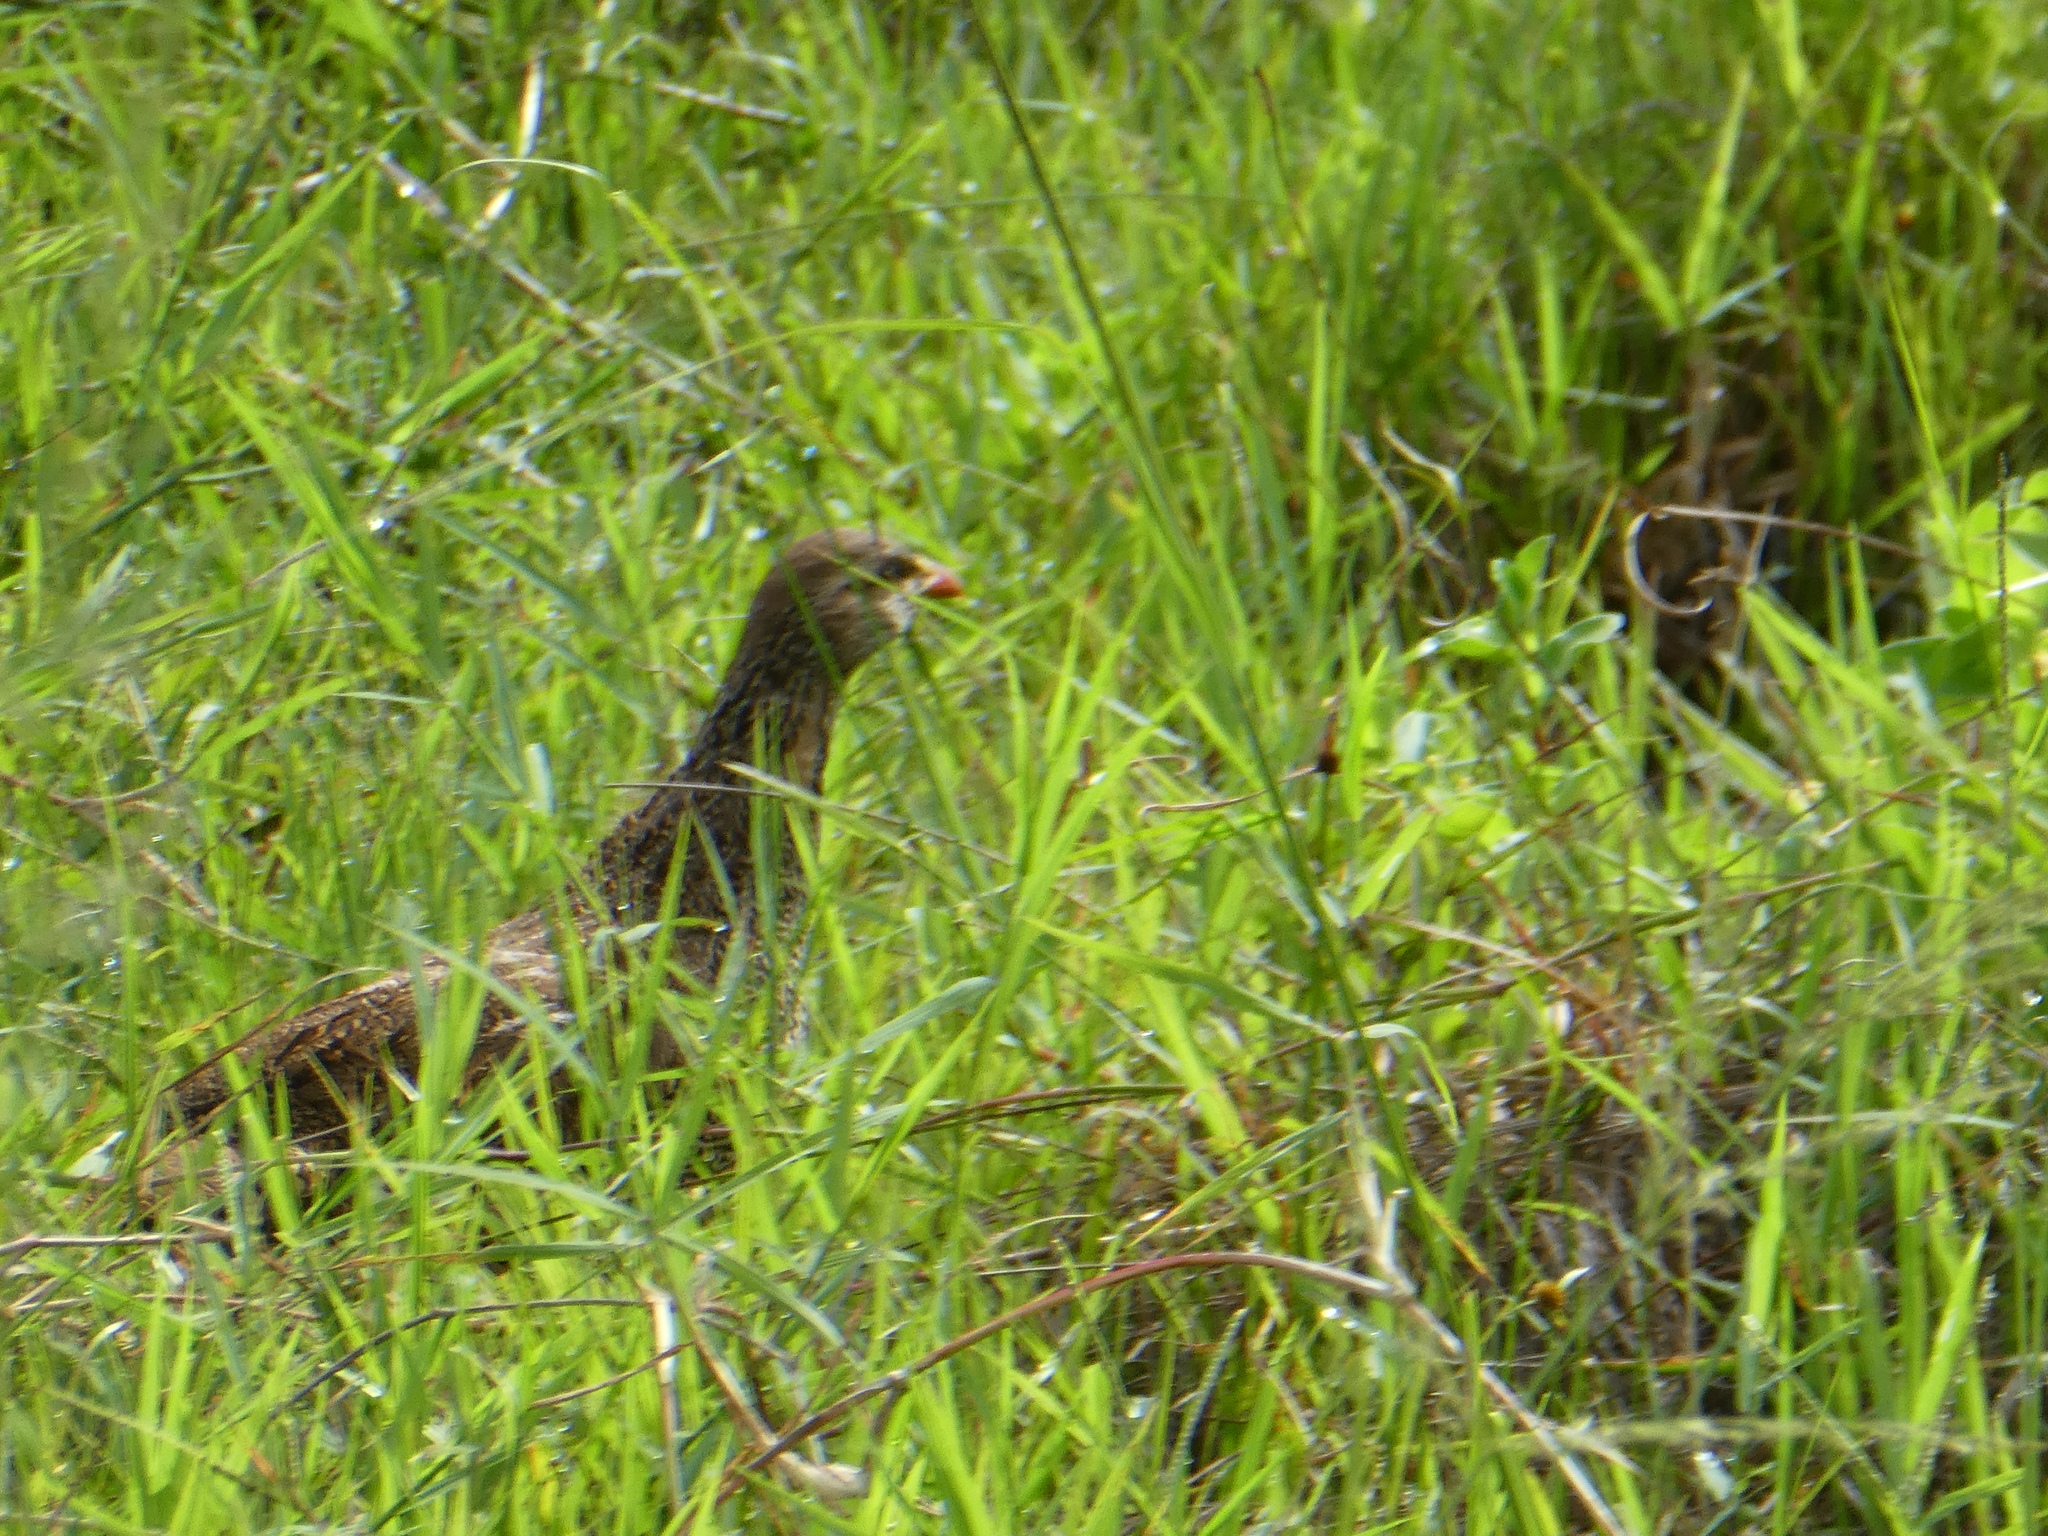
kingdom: Animalia
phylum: Chordata
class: Aves
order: Galliformes
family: Phasianidae
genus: Pternistis
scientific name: Pternistis natalensis
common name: Natal spurfowl
